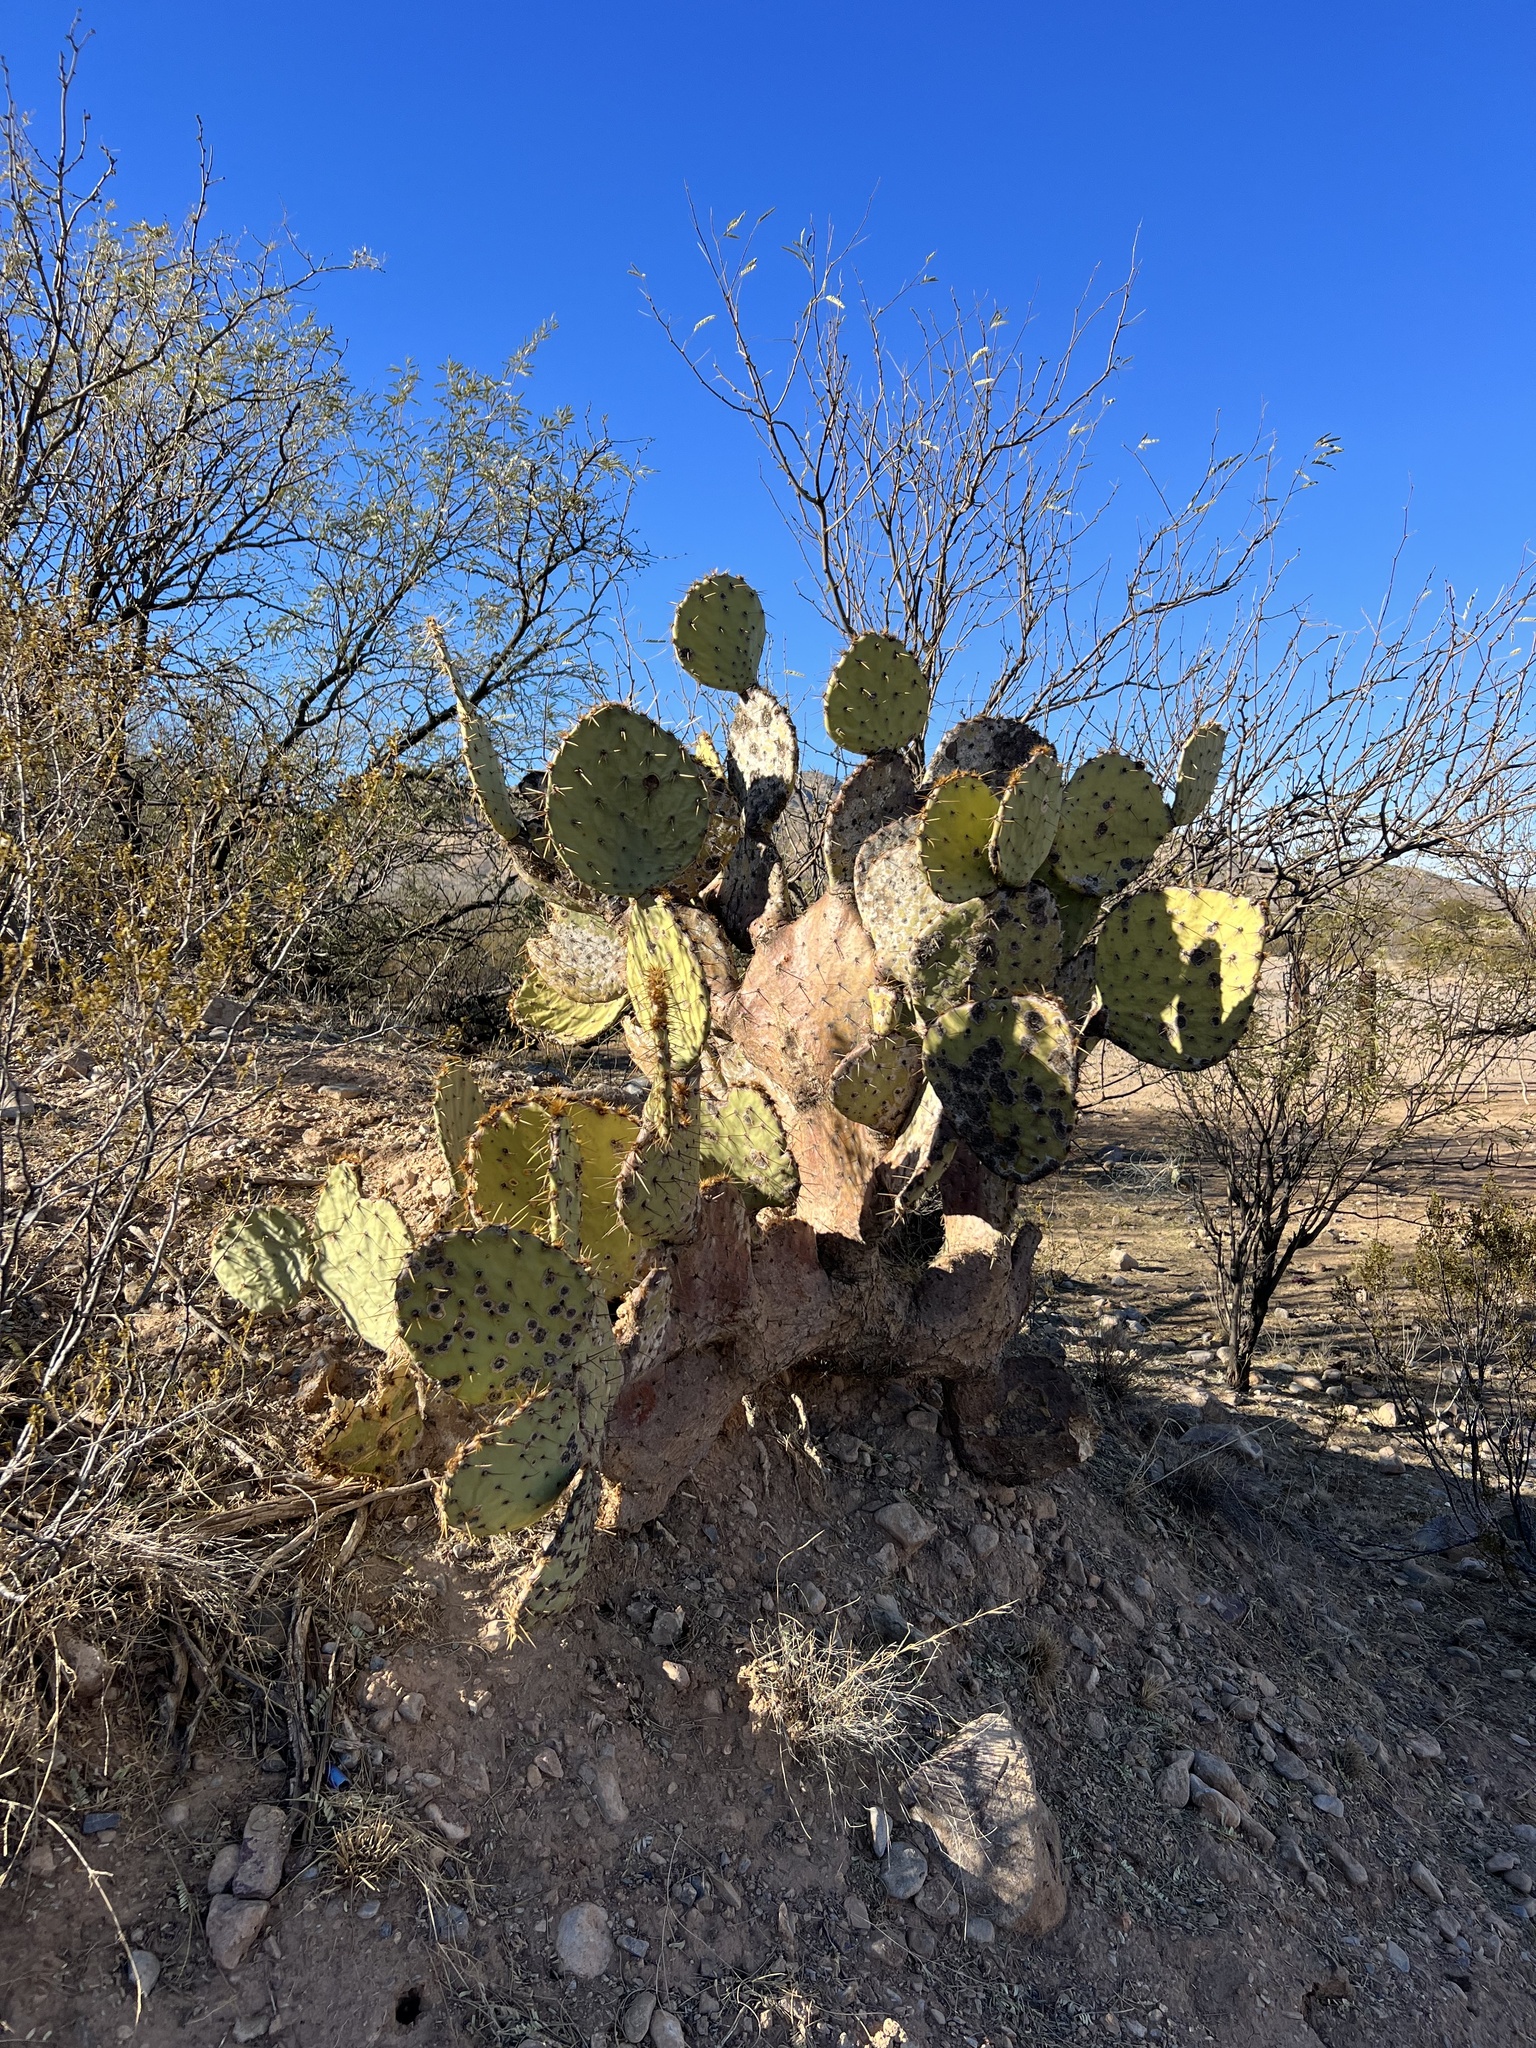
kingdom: Plantae
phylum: Tracheophyta
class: Magnoliopsida
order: Caryophyllales
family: Cactaceae
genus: Opuntia
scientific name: Opuntia engelmannii
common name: Cactus-apple
